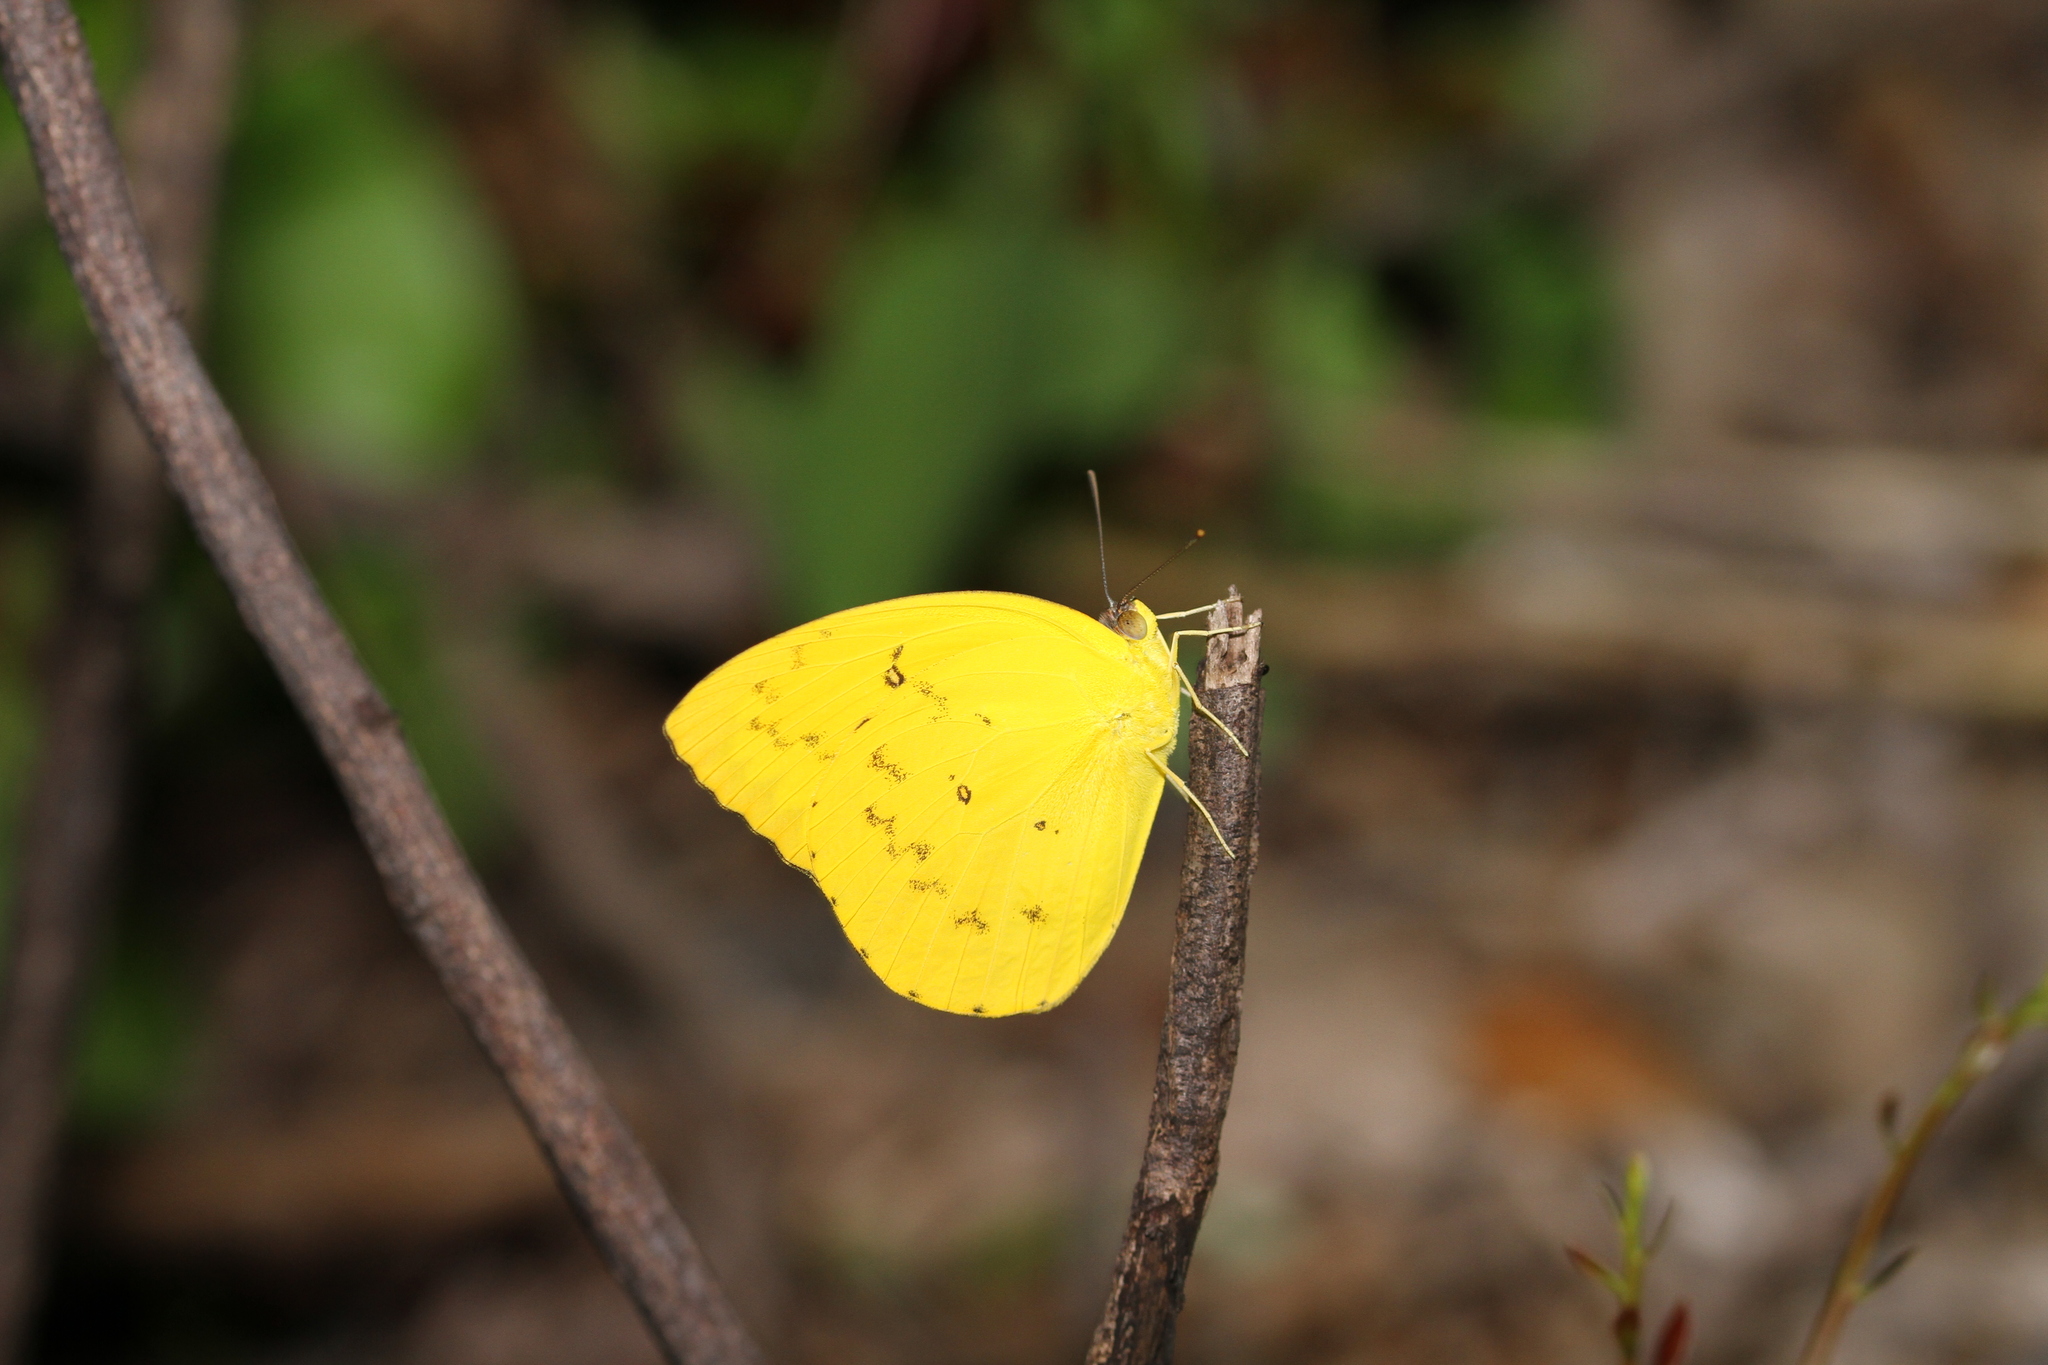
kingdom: Animalia
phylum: Arthropoda
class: Insecta
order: Lepidoptera
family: Pieridae
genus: Catopsilia
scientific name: Catopsilia scylla
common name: Orange emigrant
